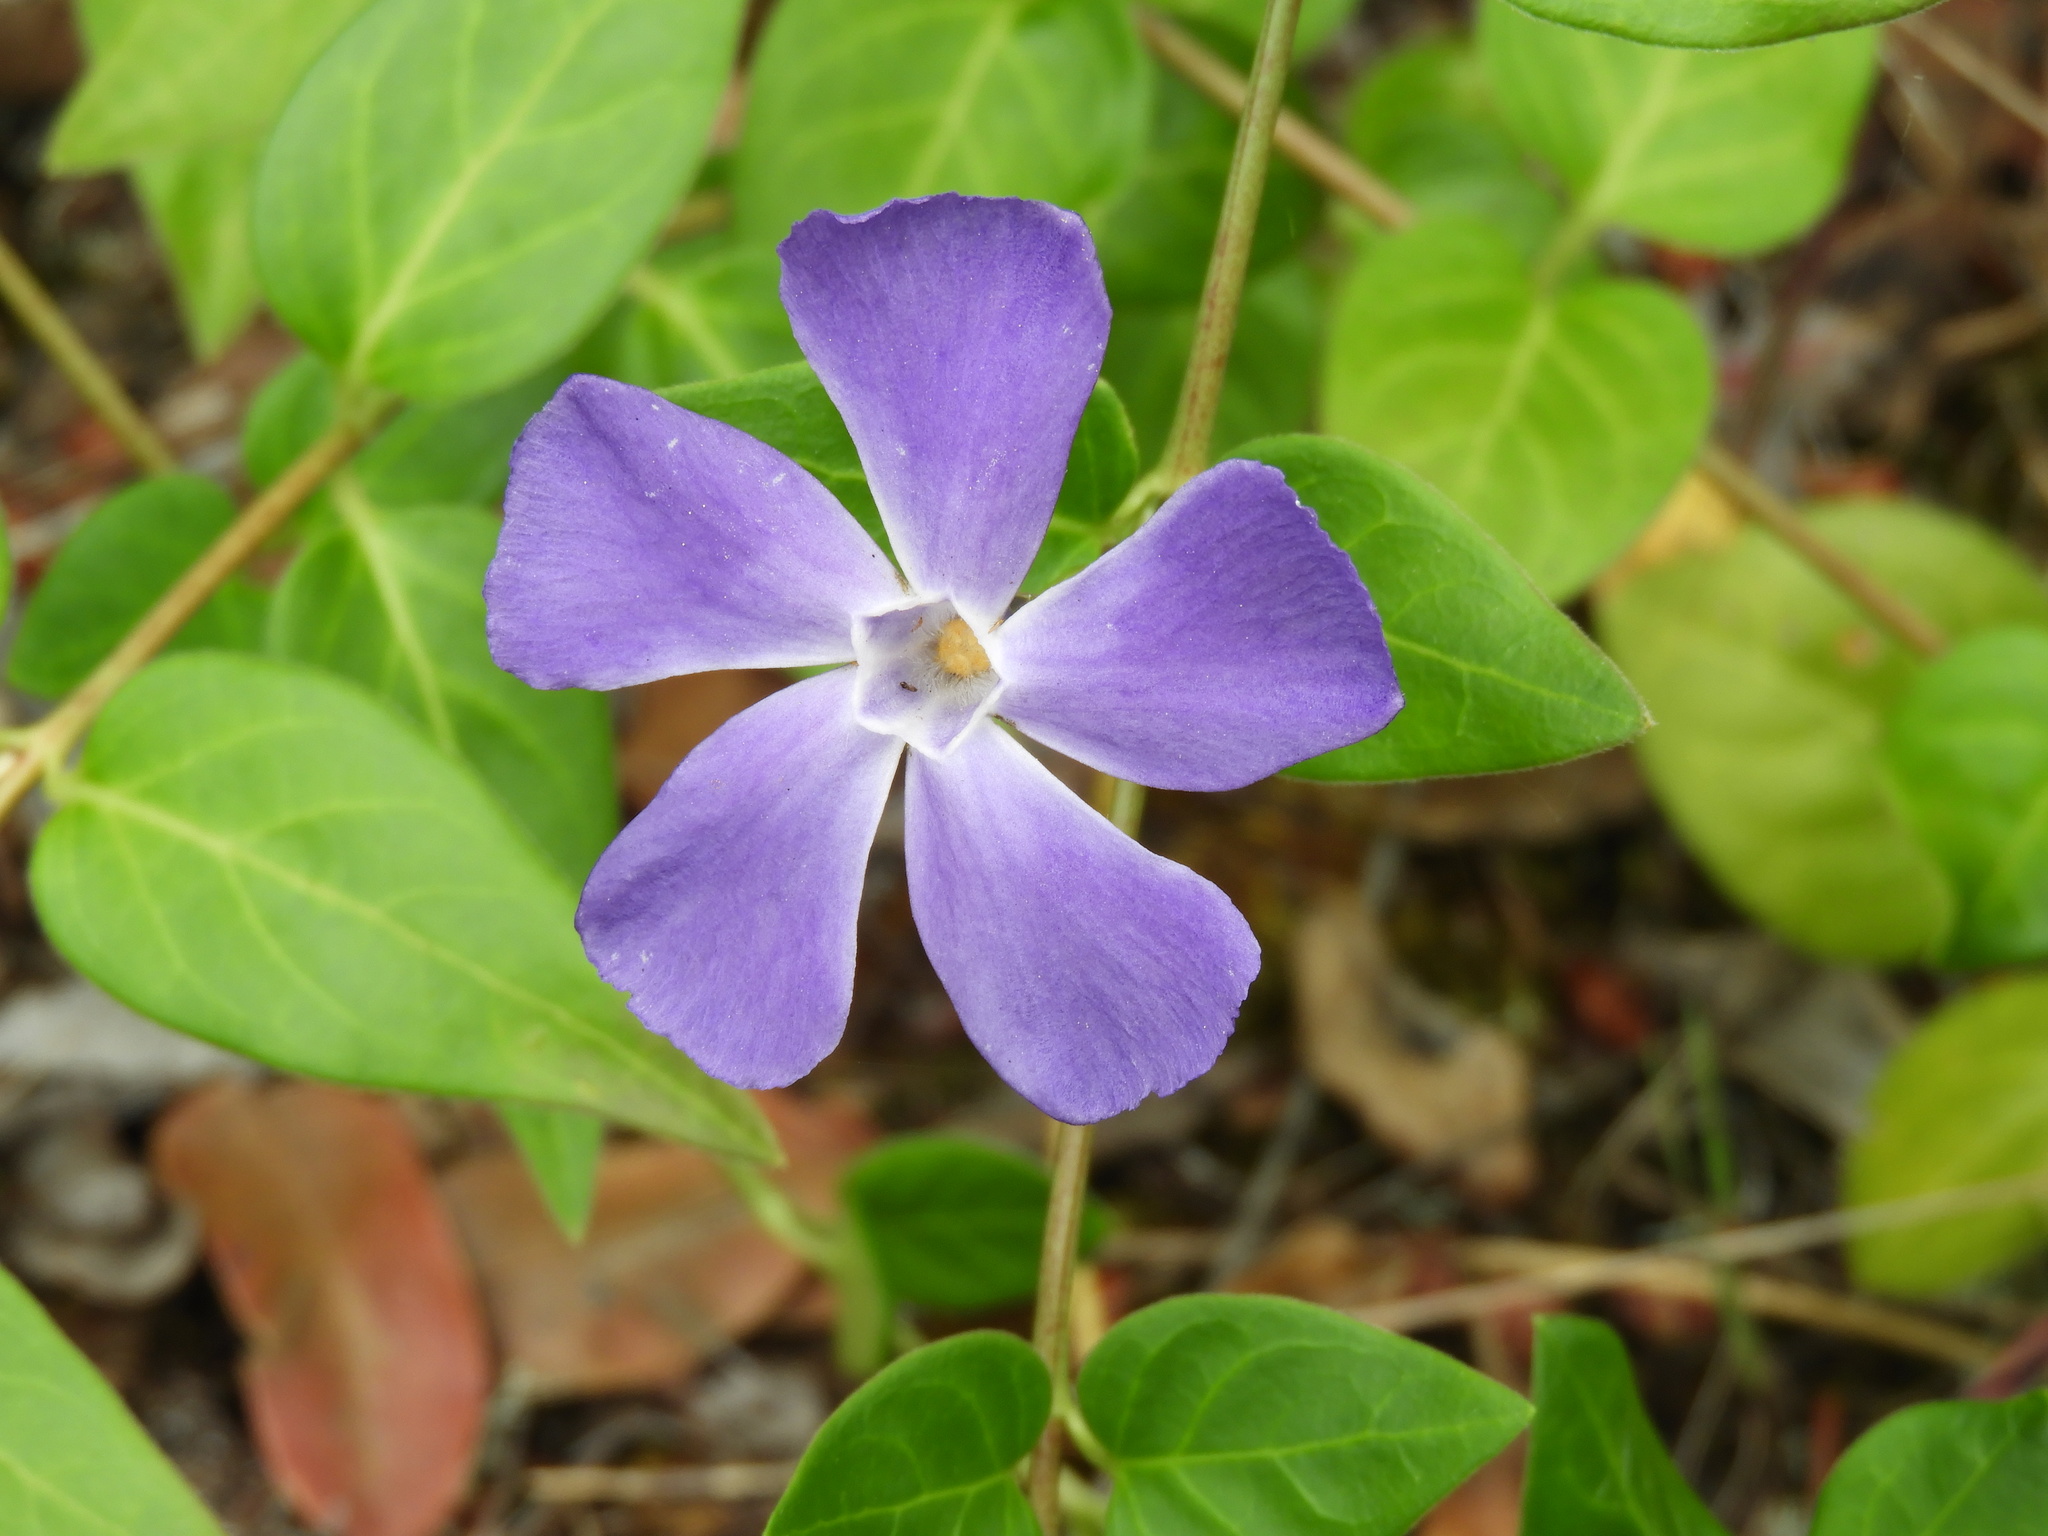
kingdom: Plantae
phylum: Tracheophyta
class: Magnoliopsida
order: Gentianales
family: Apocynaceae
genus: Vinca
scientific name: Vinca major
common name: Greater periwinkle
